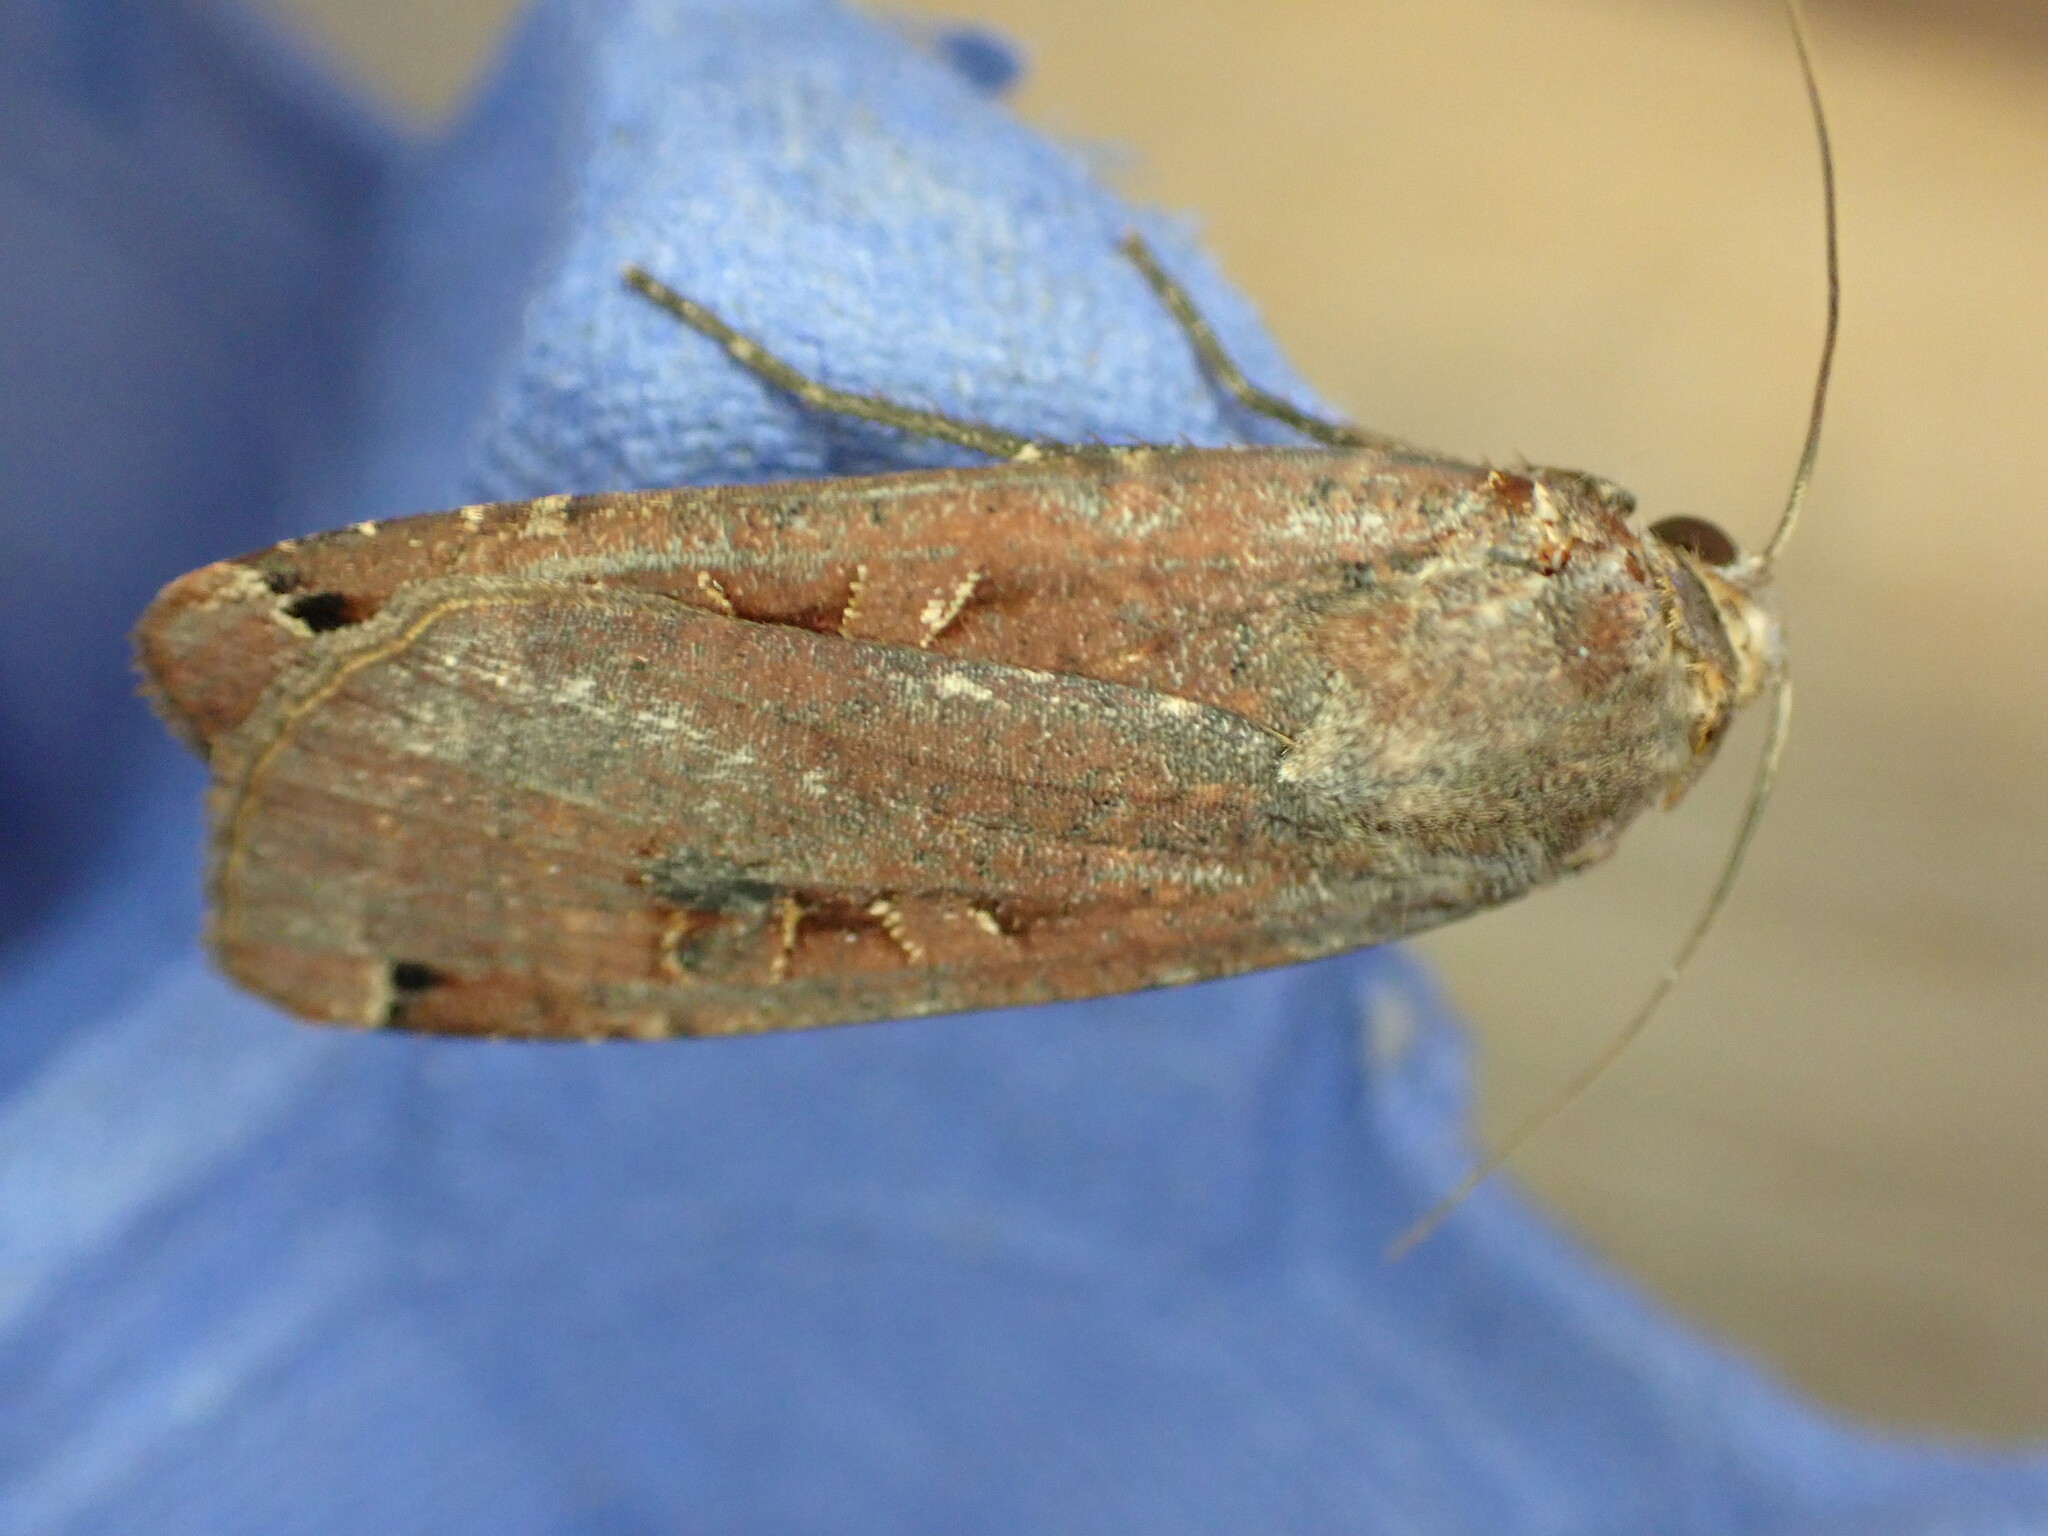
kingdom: Animalia
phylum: Arthropoda
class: Insecta
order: Lepidoptera
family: Noctuidae
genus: Noctua
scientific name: Noctua pronuba
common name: Large yellow underwing
